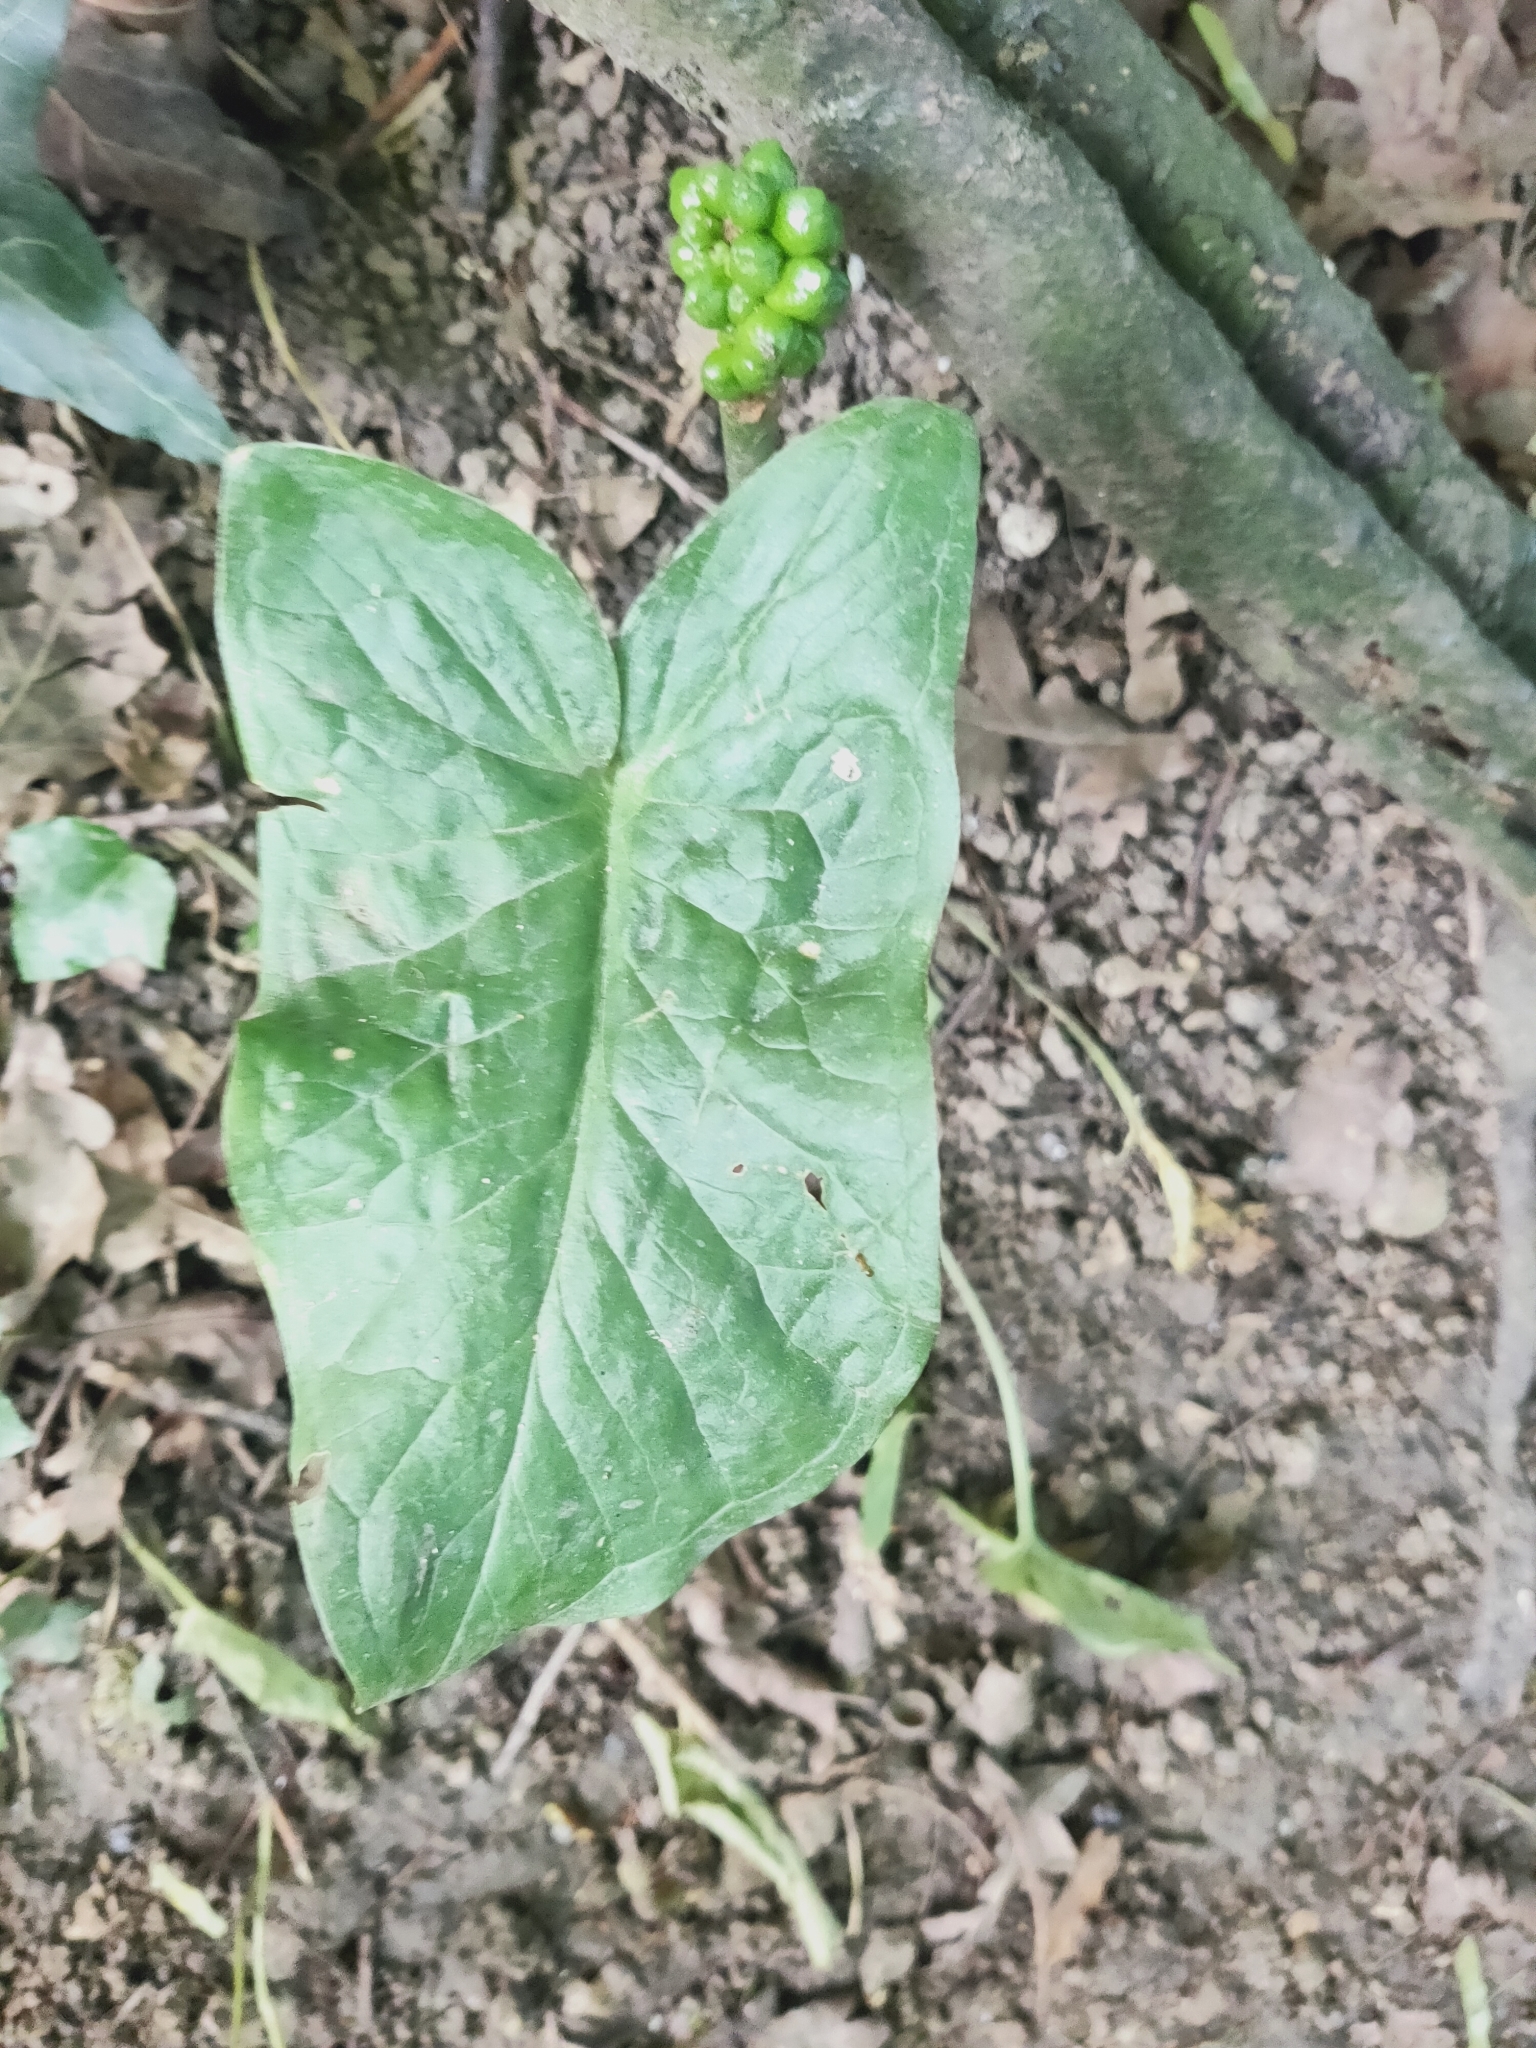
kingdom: Plantae
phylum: Tracheophyta
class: Liliopsida
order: Alismatales
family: Araceae
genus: Arum
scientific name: Arum maculatum
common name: Lords-and-ladies
